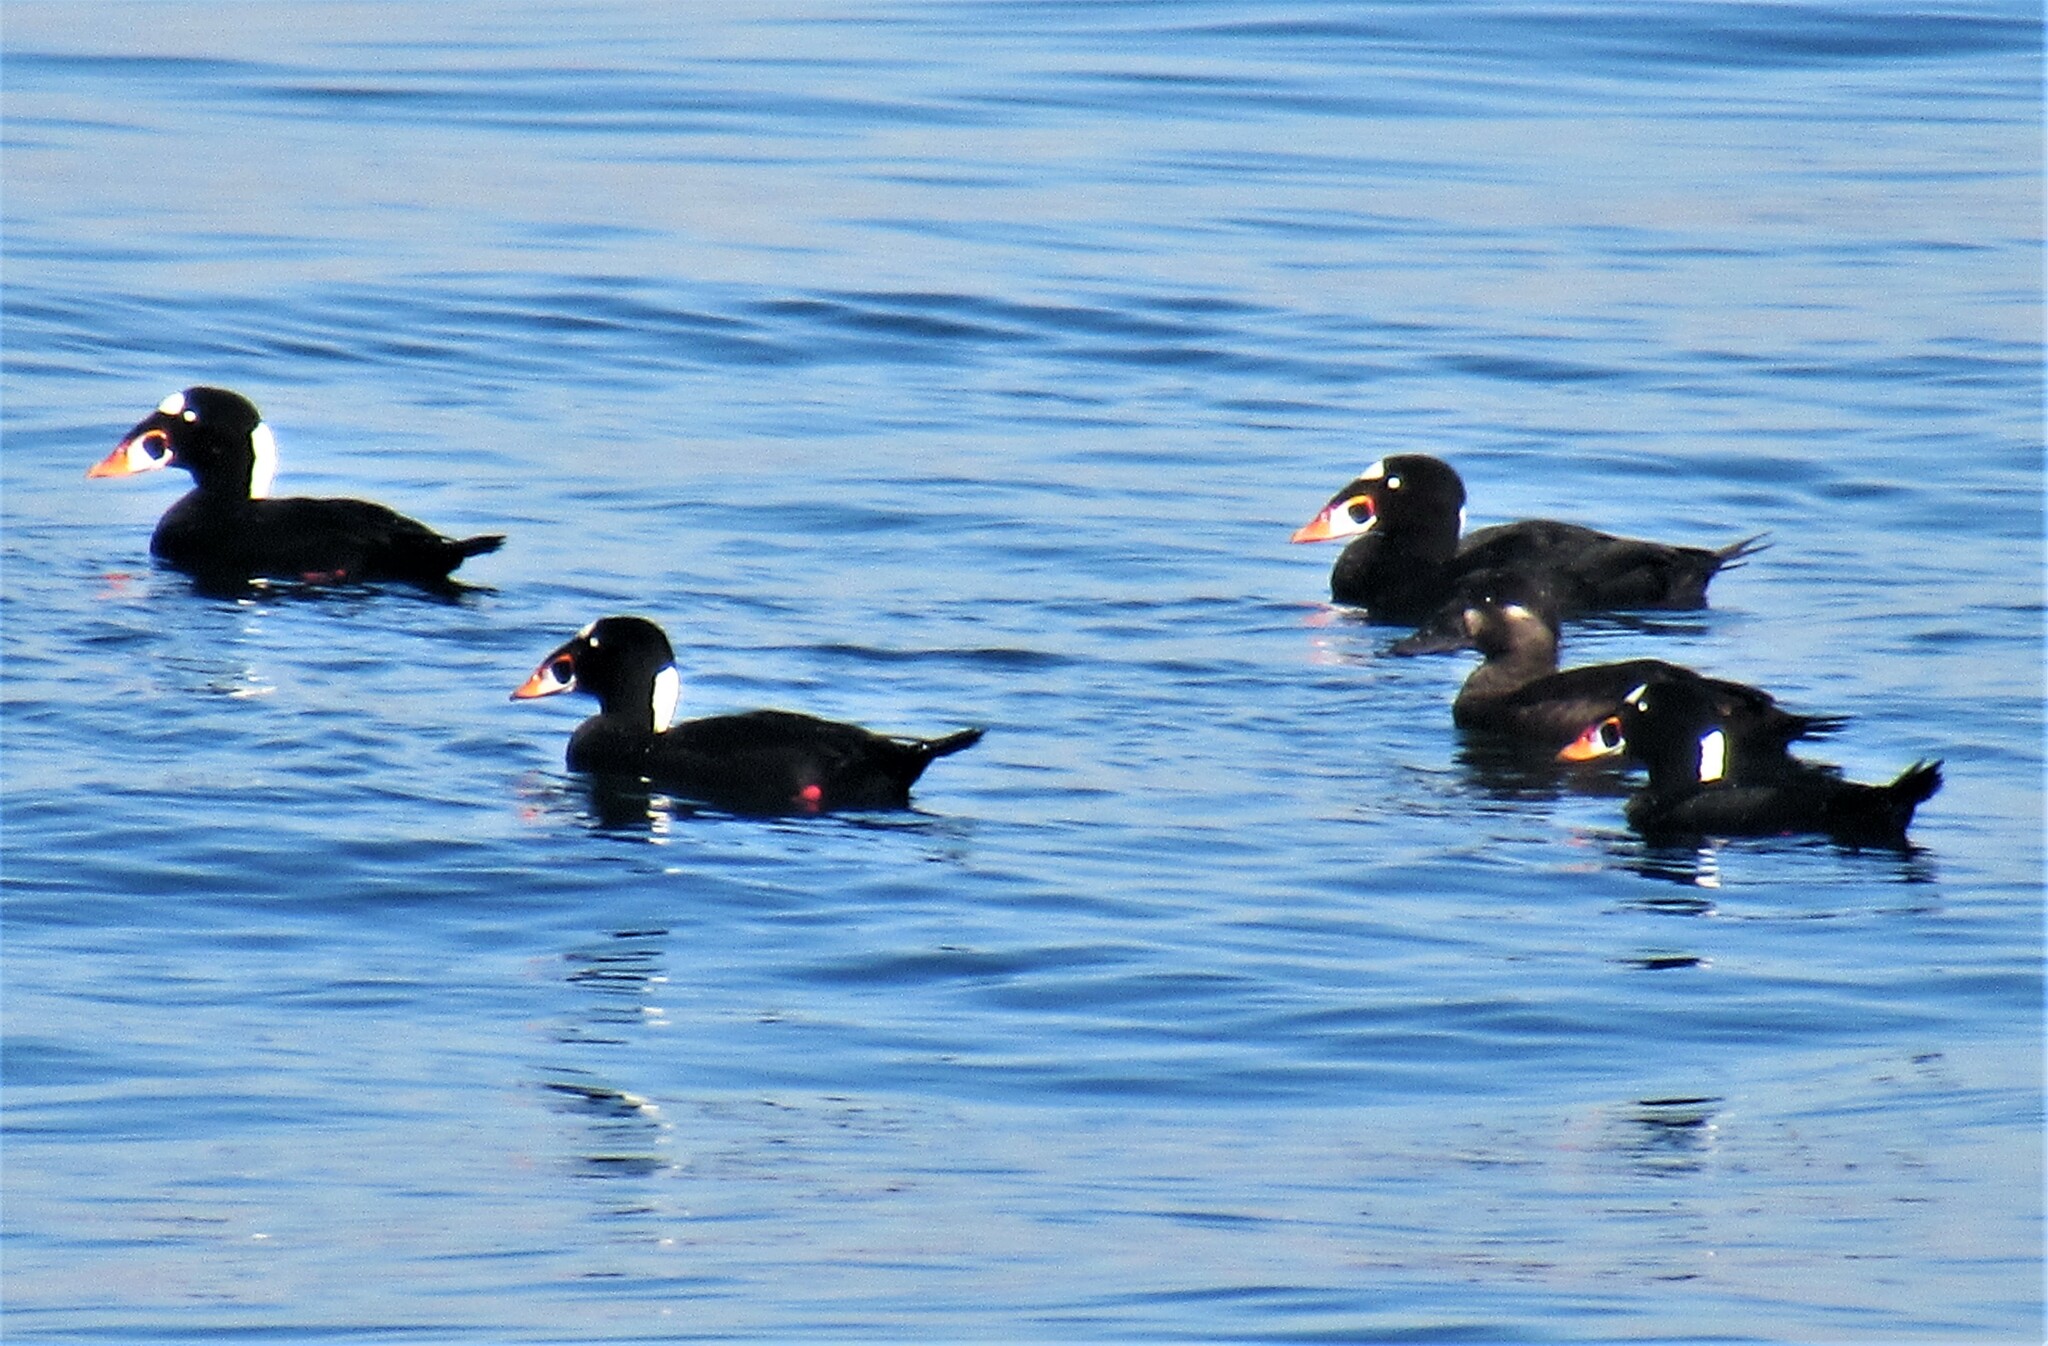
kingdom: Animalia
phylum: Chordata
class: Aves
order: Anseriformes
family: Anatidae
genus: Melanitta
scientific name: Melanitta perspicillata
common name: Surf scoter
